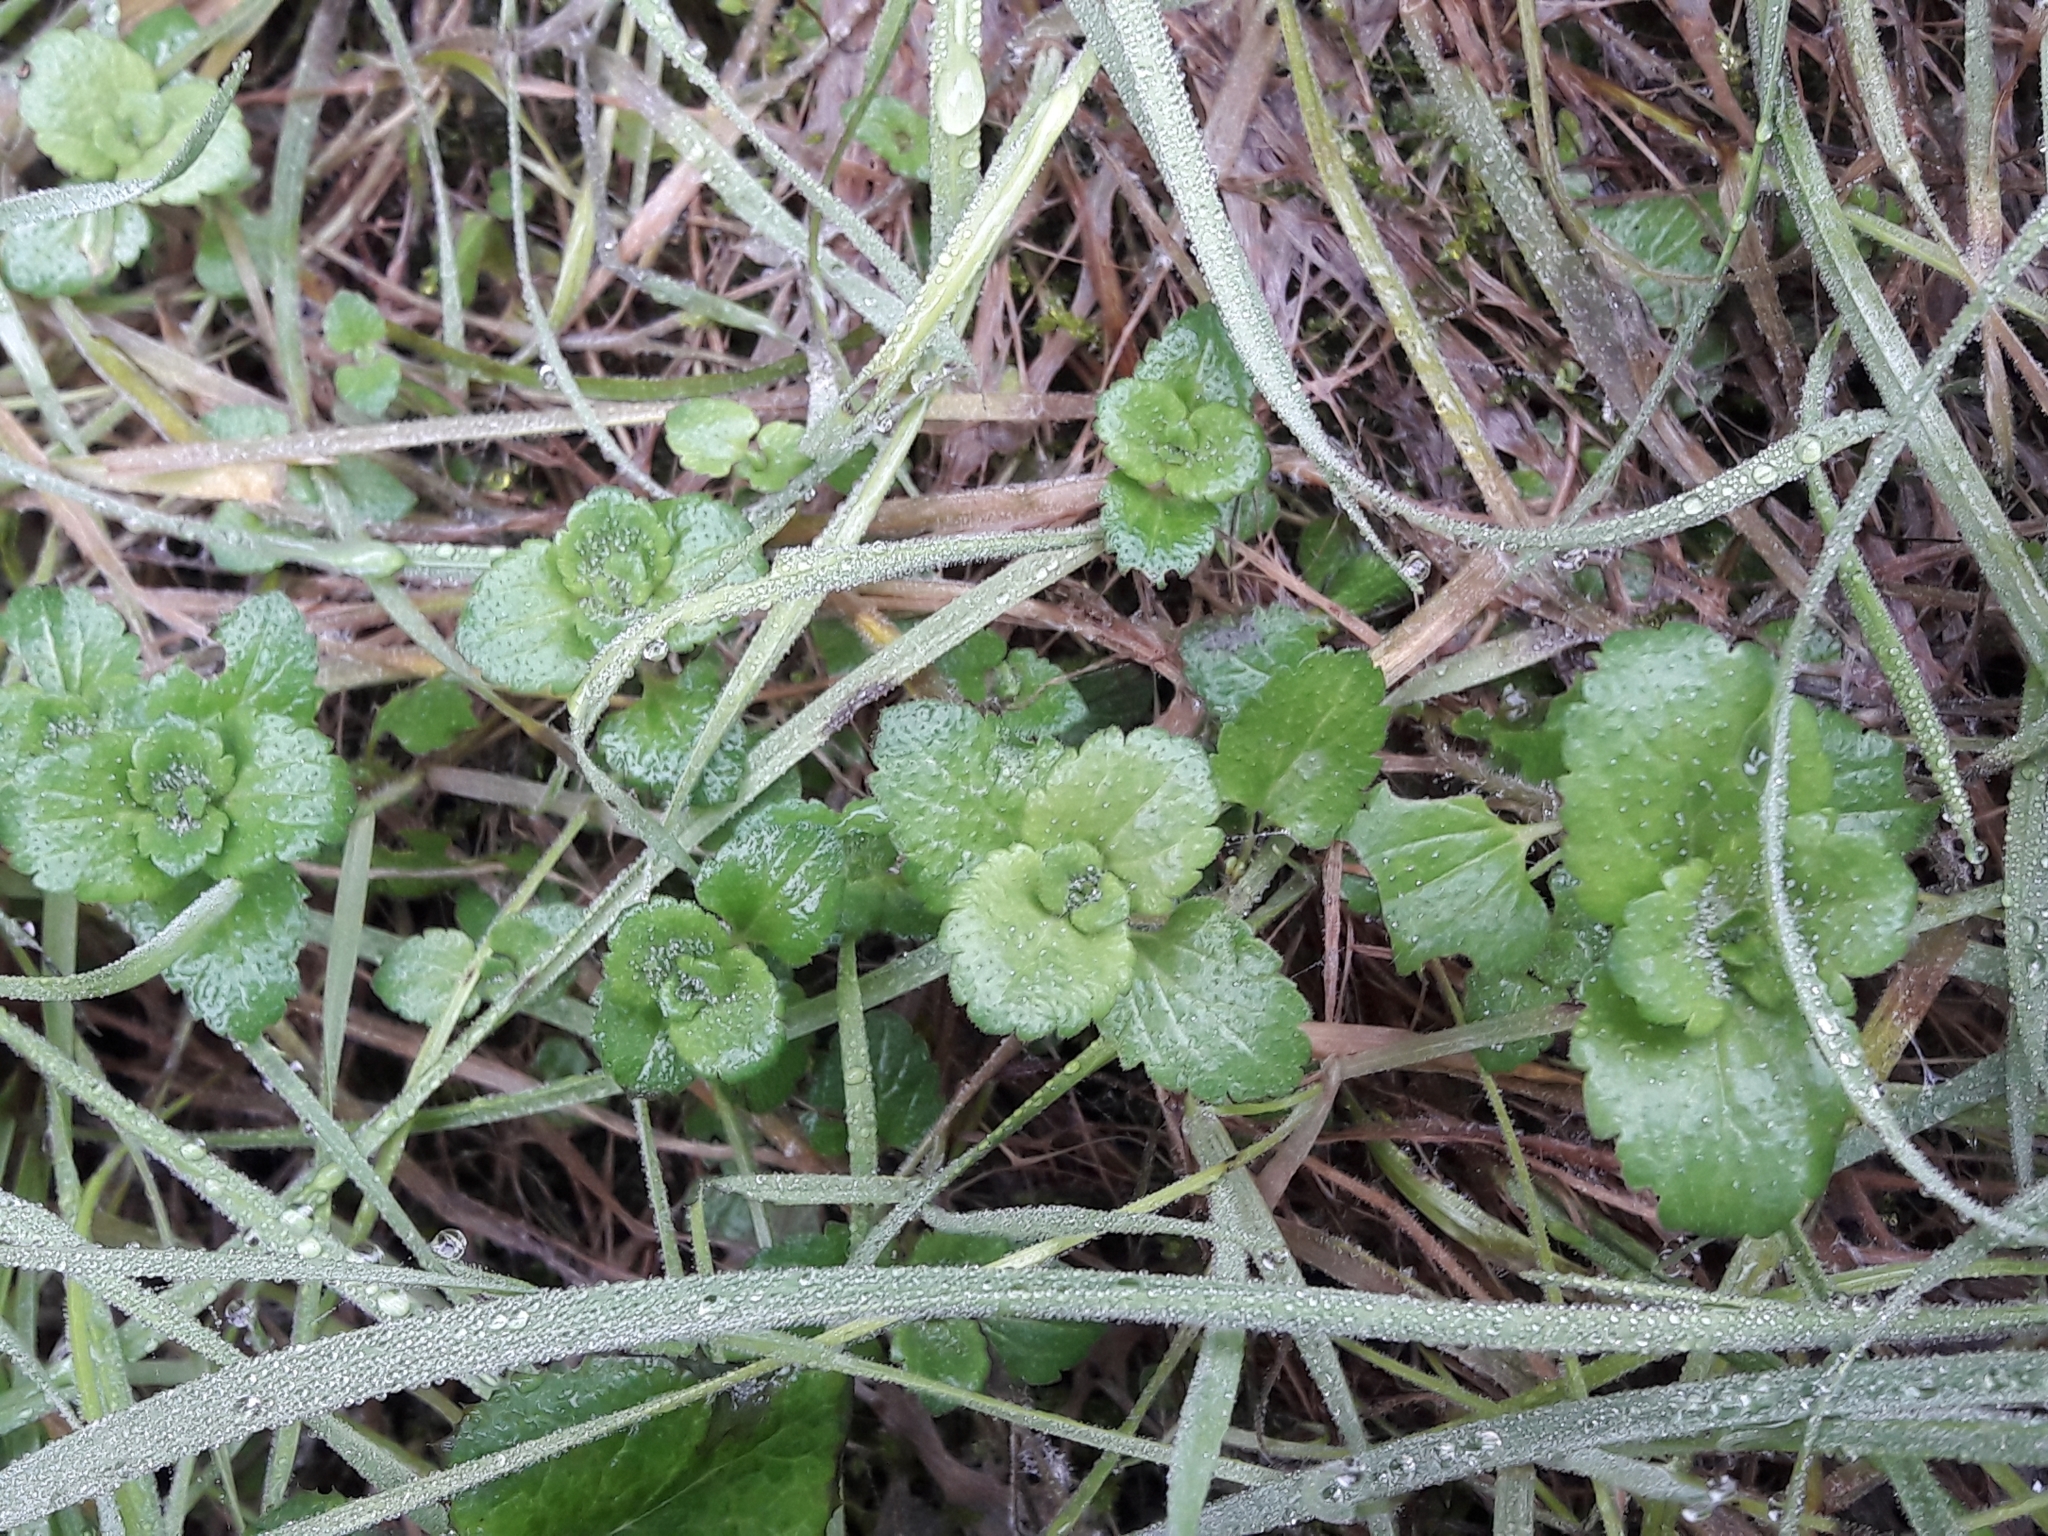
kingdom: Plantae
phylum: Tracheophyta
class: Magnoliopsida
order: Lamiales
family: Plantaginaceae
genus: Veronica
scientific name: Veronica persica
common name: Common field-speedwell
